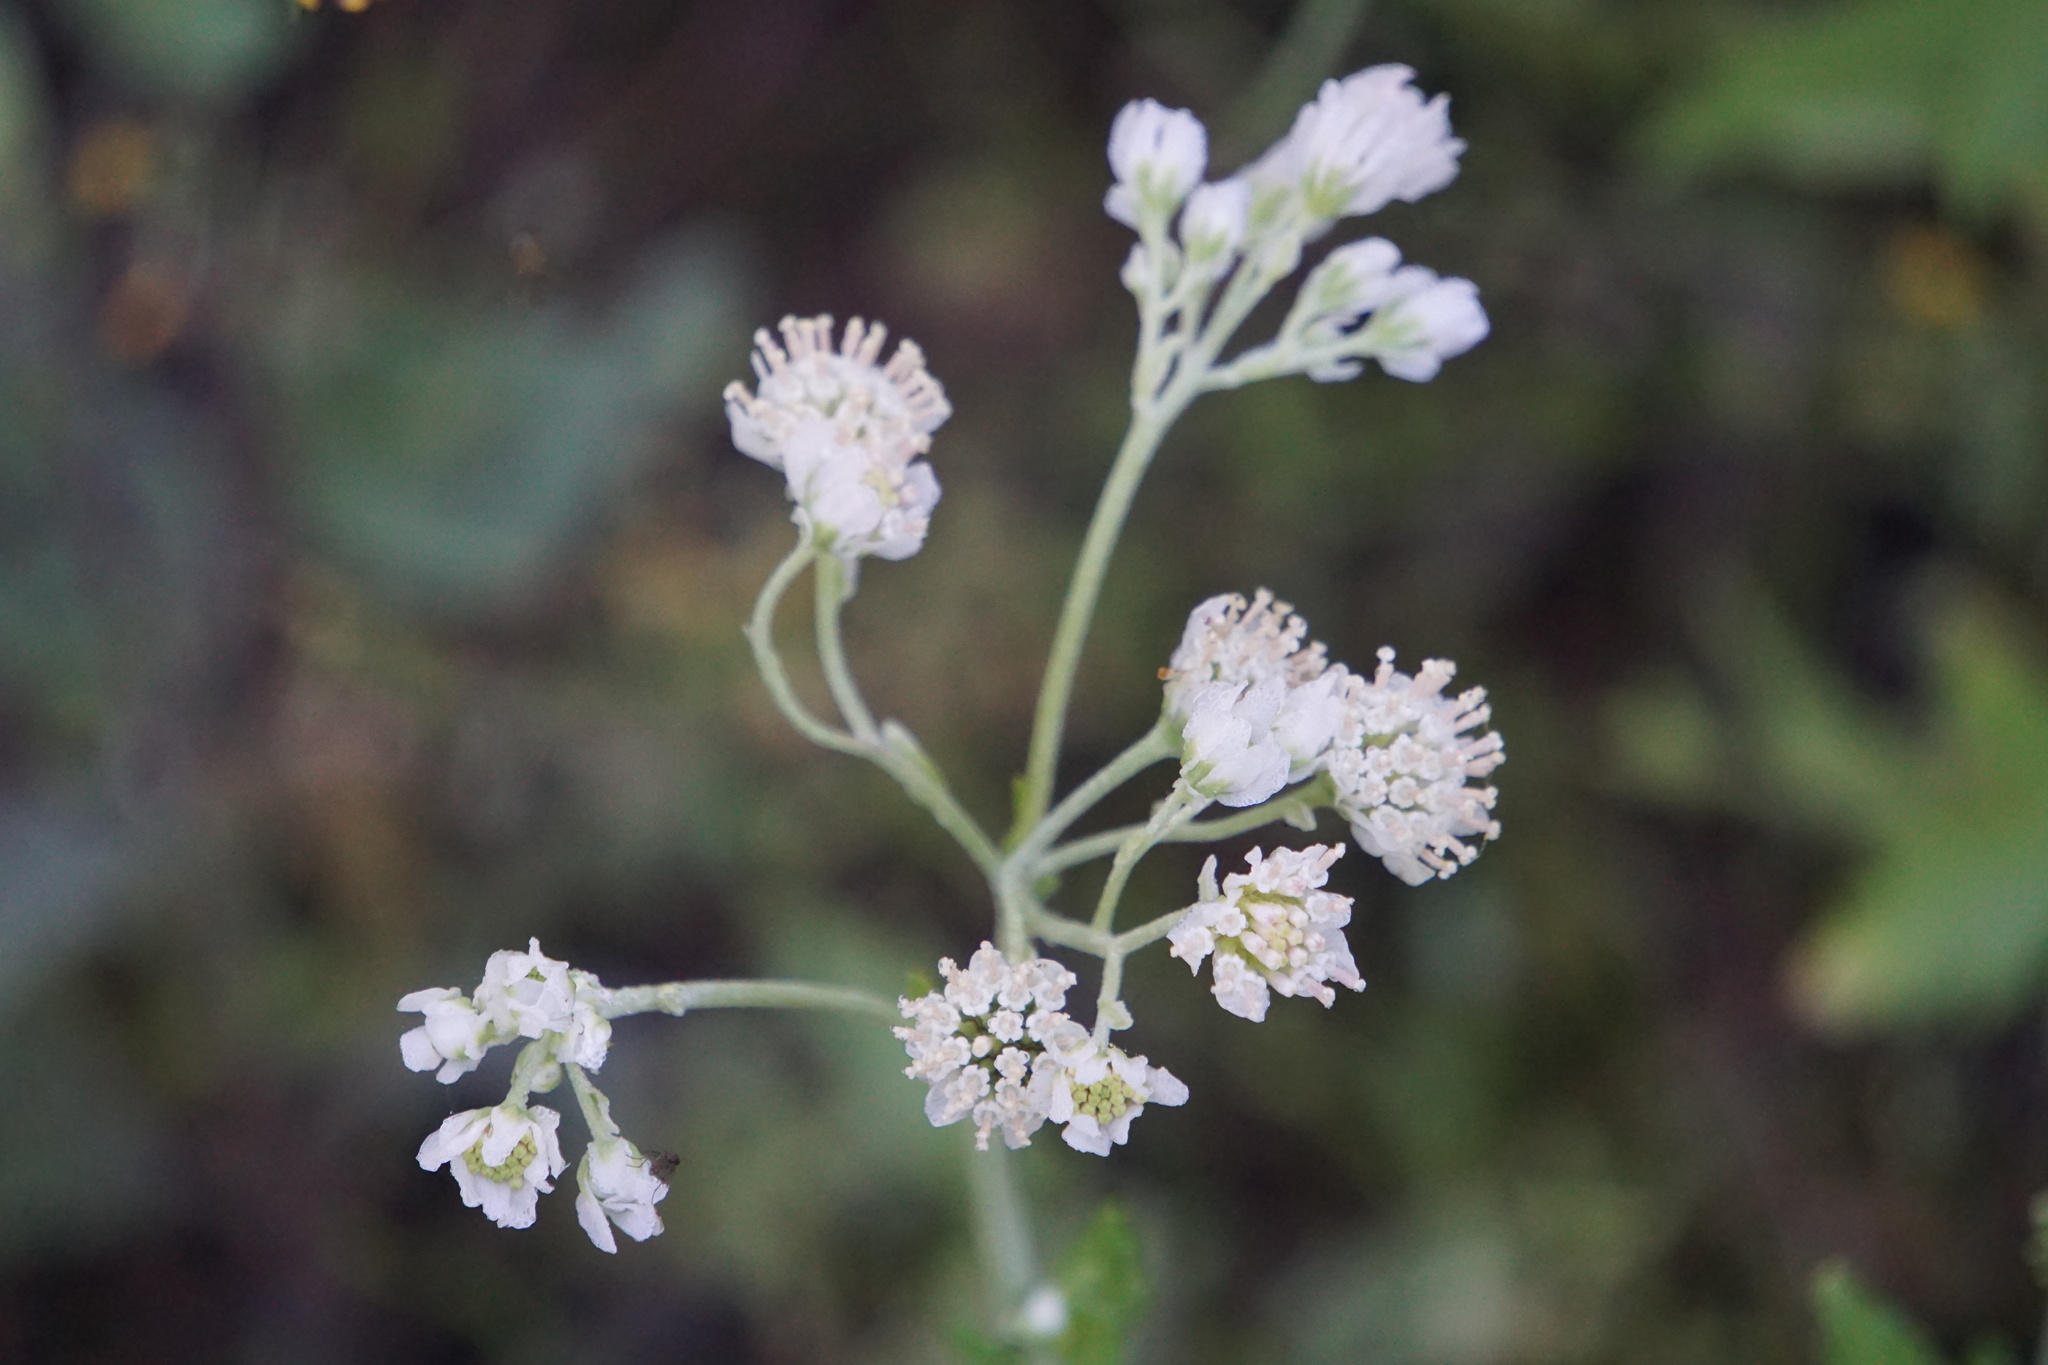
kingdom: Plantae
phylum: Tracheophyta
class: Magnoliopsida
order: Asterales
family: Asteraceae
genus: Hymenopappus
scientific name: Hymenopappus artemisiifolius
